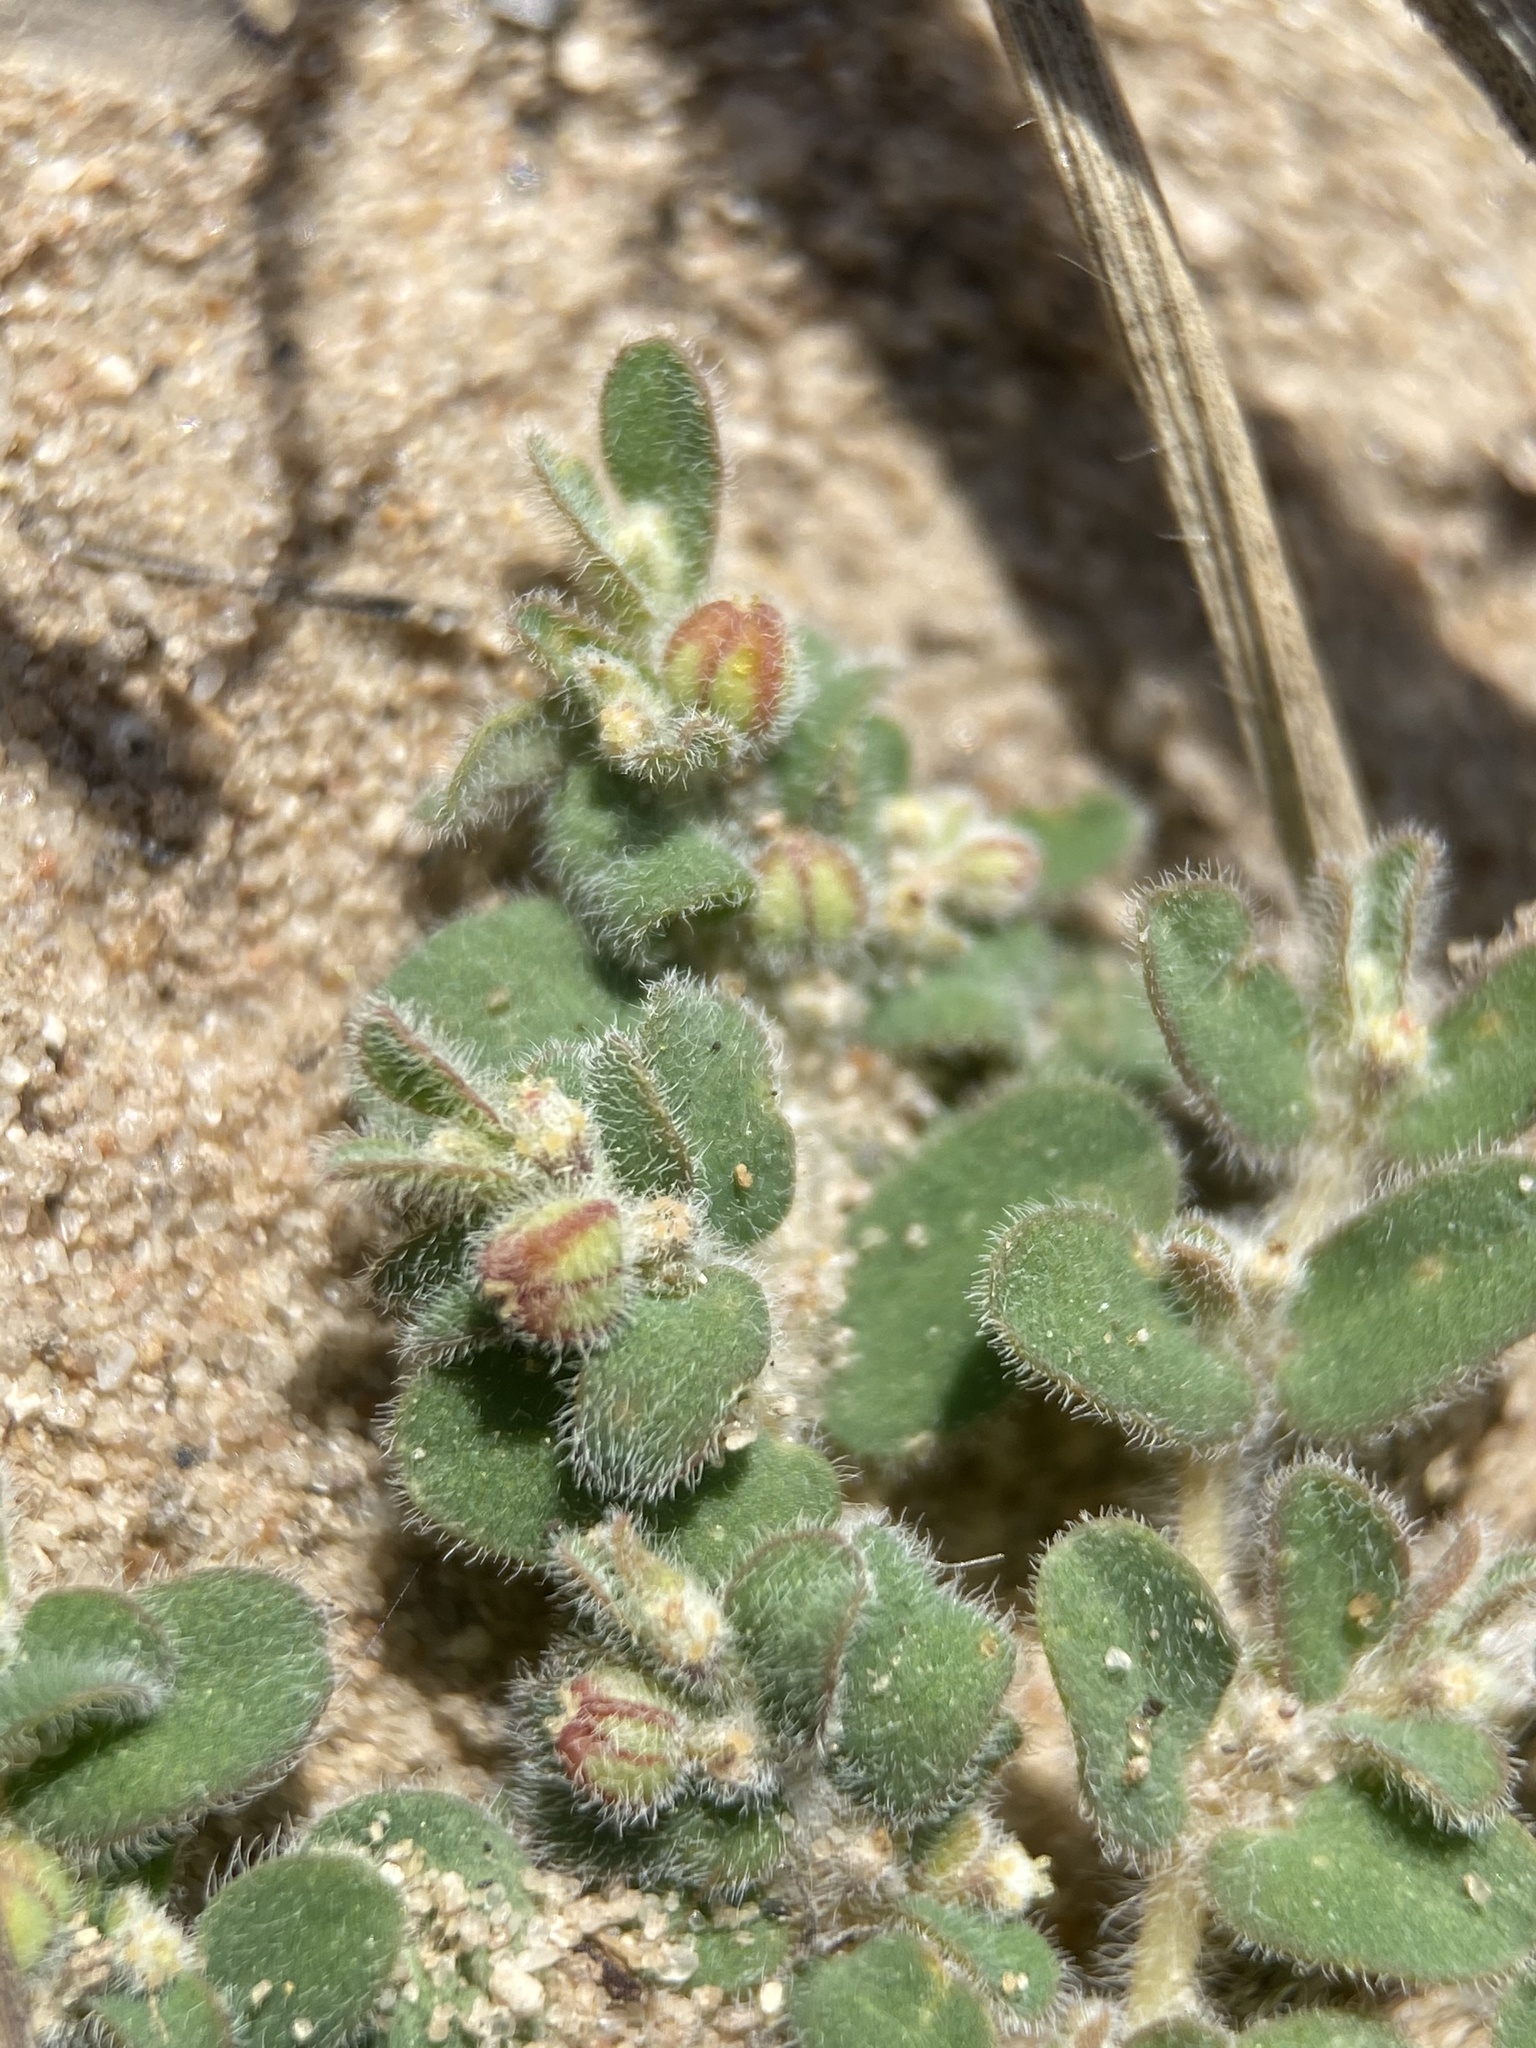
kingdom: Plantae
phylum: Tracheophyta
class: Magnoliopsida
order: Malpighiales
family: Euphorbiaceae
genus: Euphorbia
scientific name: Euphorbia laredana
